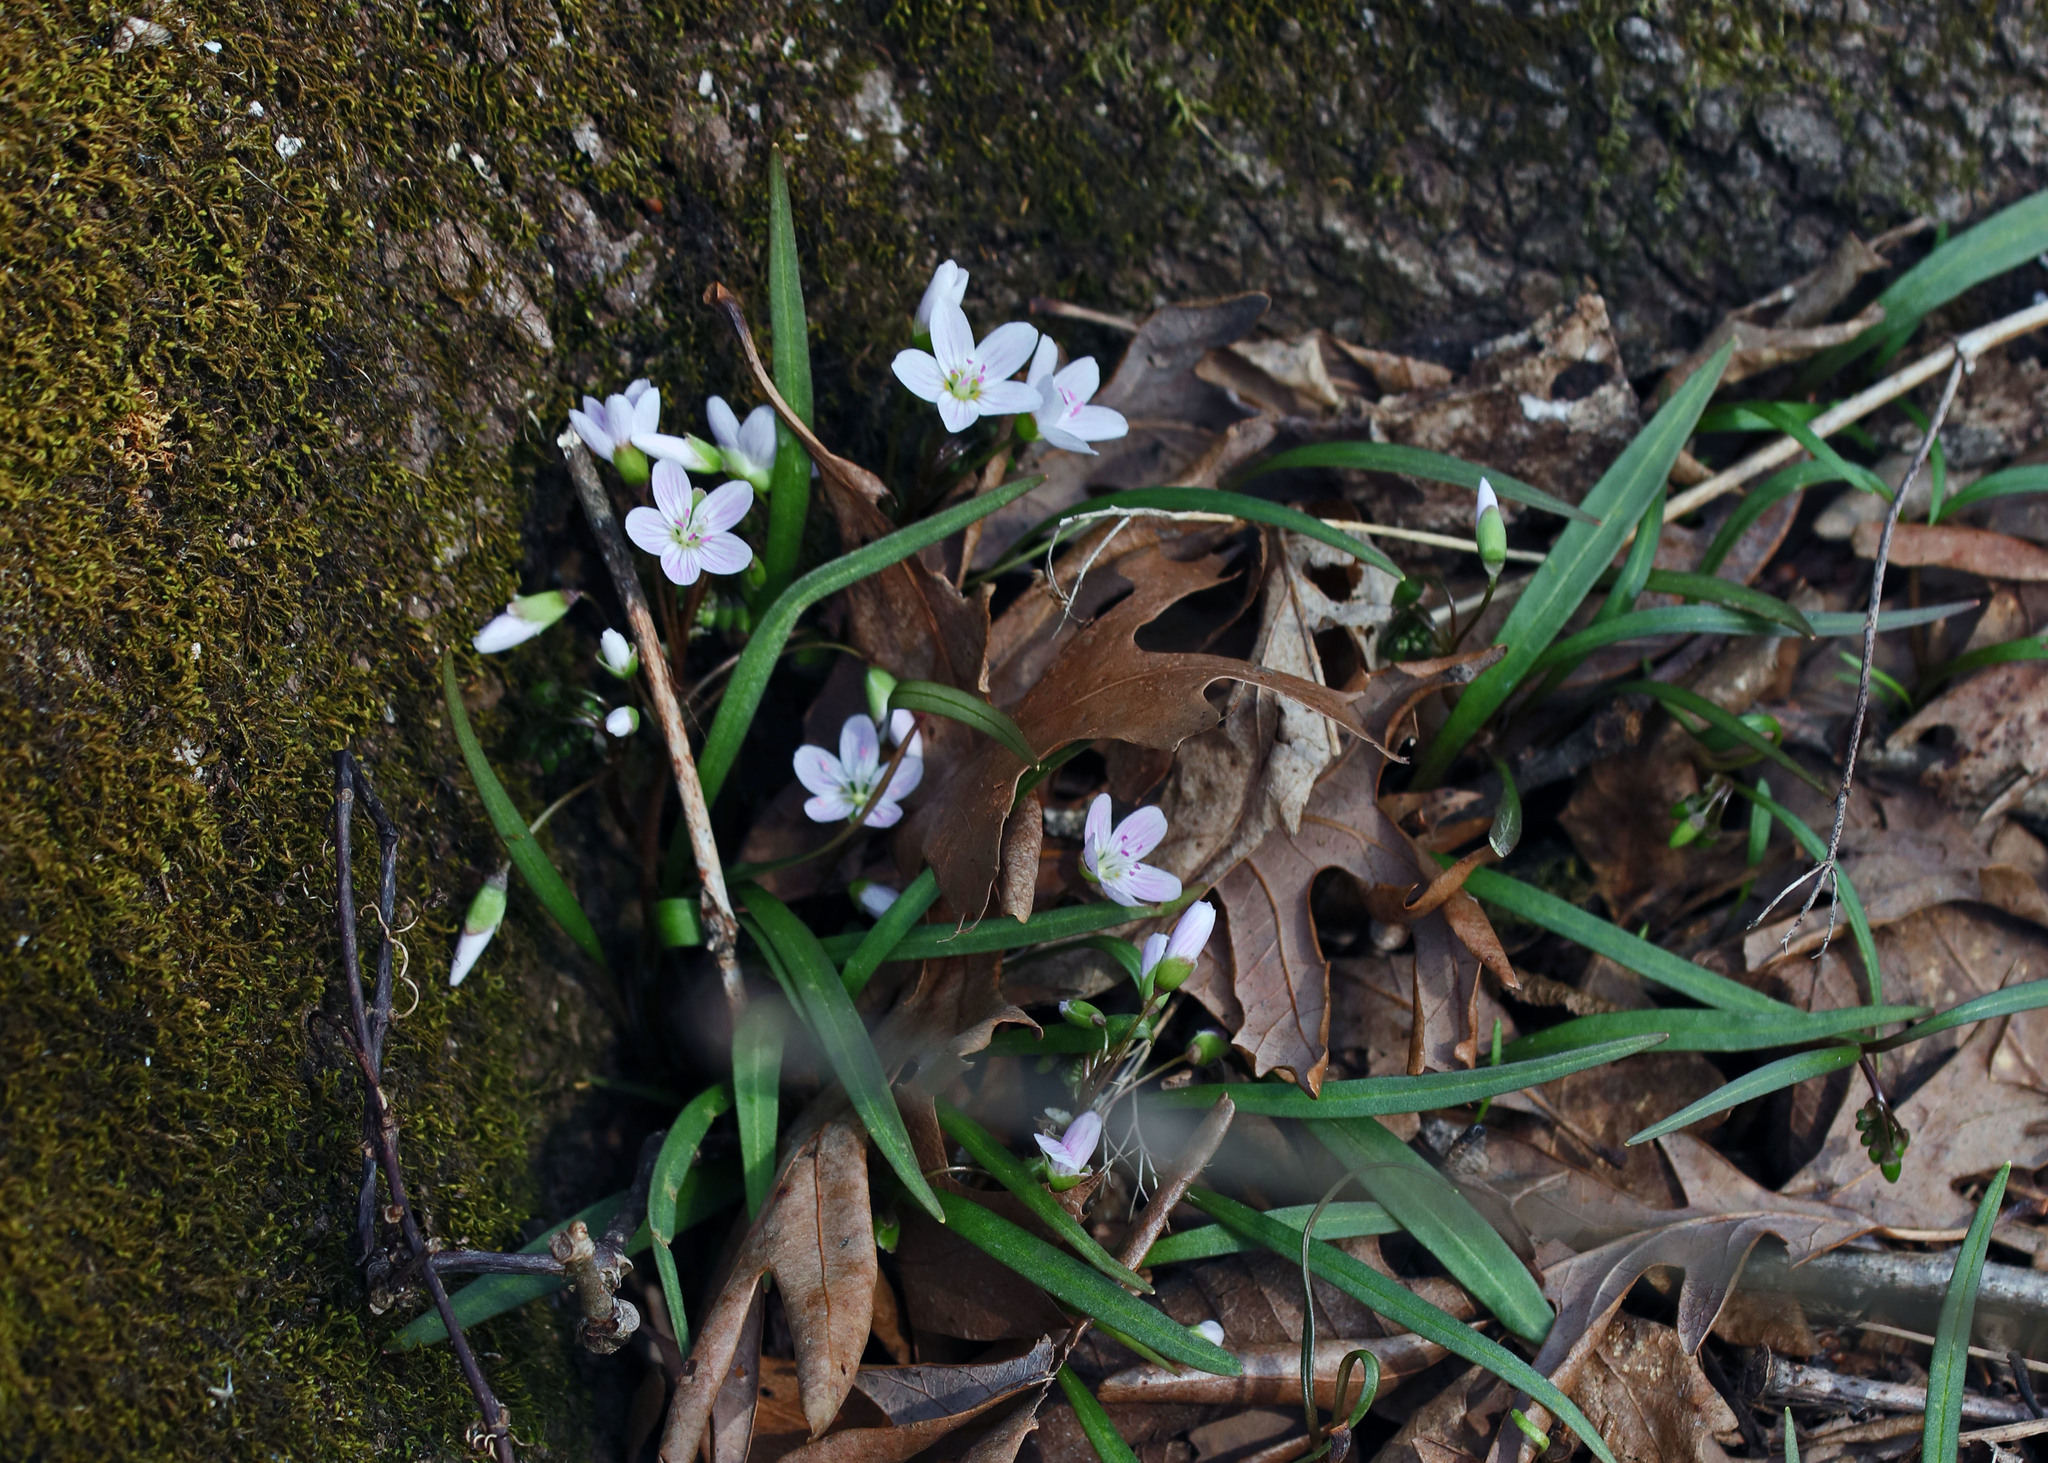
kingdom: Plantae
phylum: Tracheophyta
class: Magnoliopsida
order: Caryophyllales
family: Montiaceae
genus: Claytonia
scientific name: Claytonia virginica
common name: Virginia springbeauty
